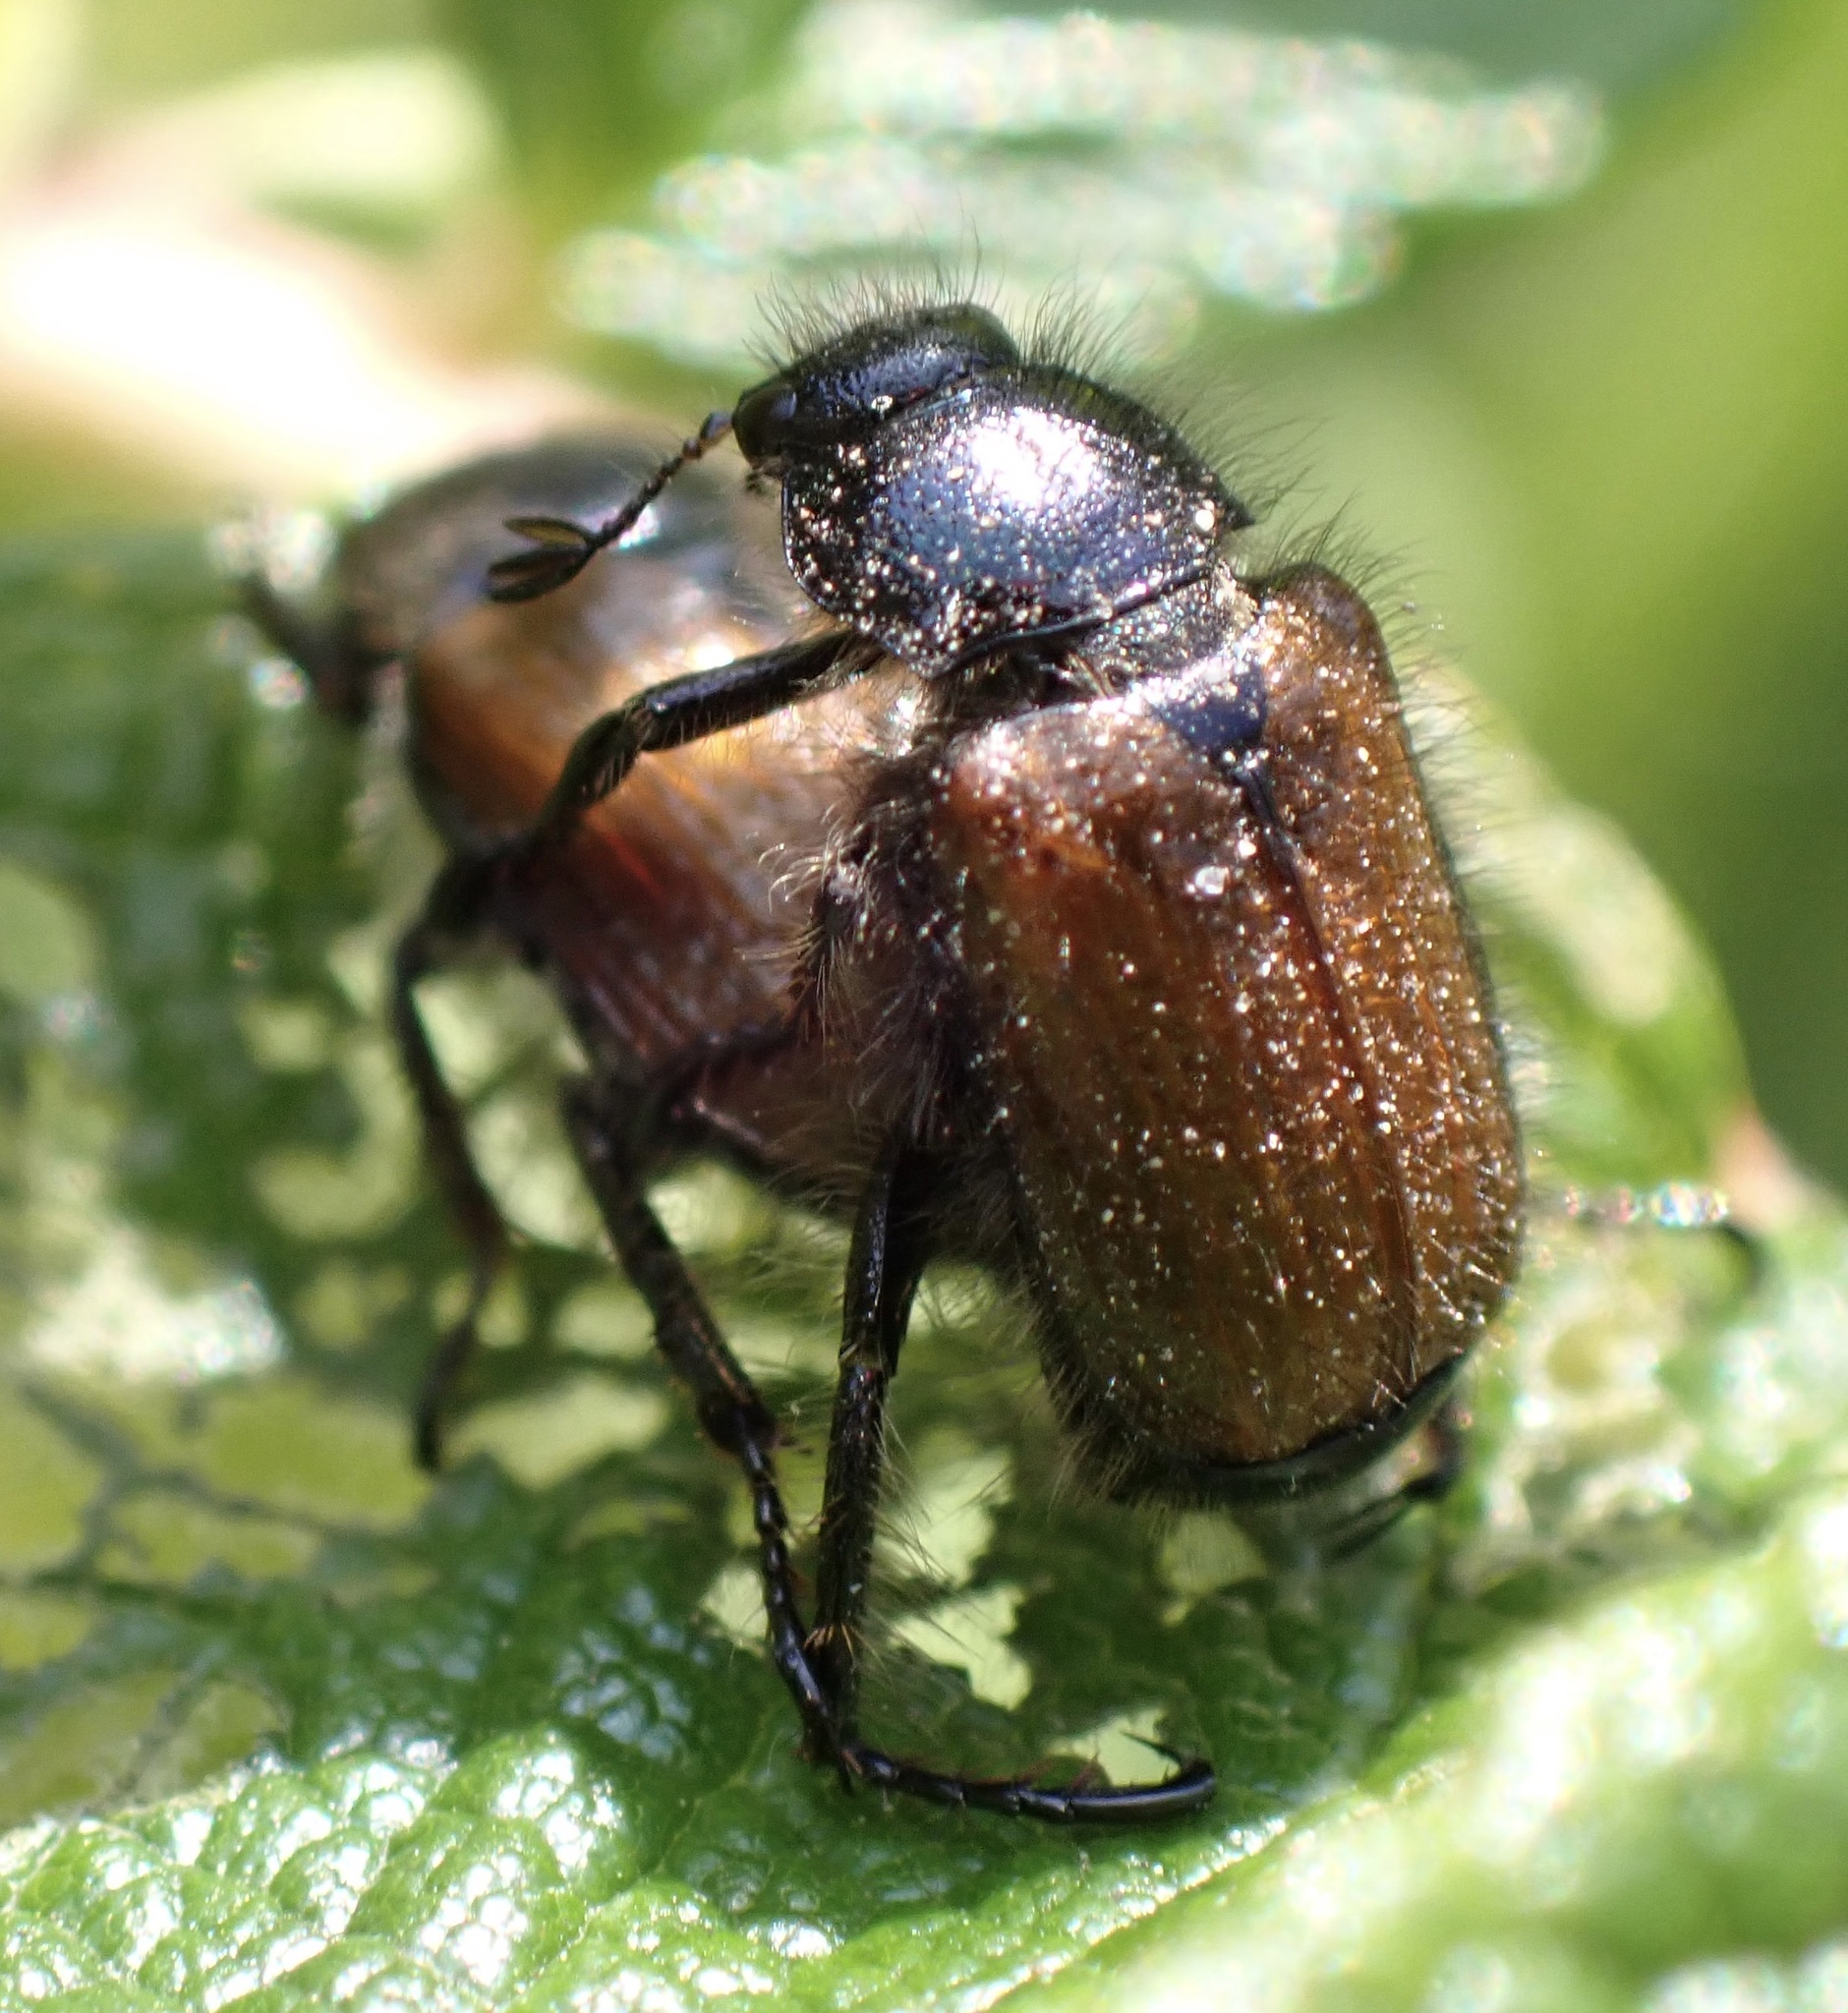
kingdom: Animalia
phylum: Arthropoda
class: Insecta
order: Coleoptera
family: Scarabaeidae
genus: Phyllopertha
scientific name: Phyllopertha horticola
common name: Garden chafer
